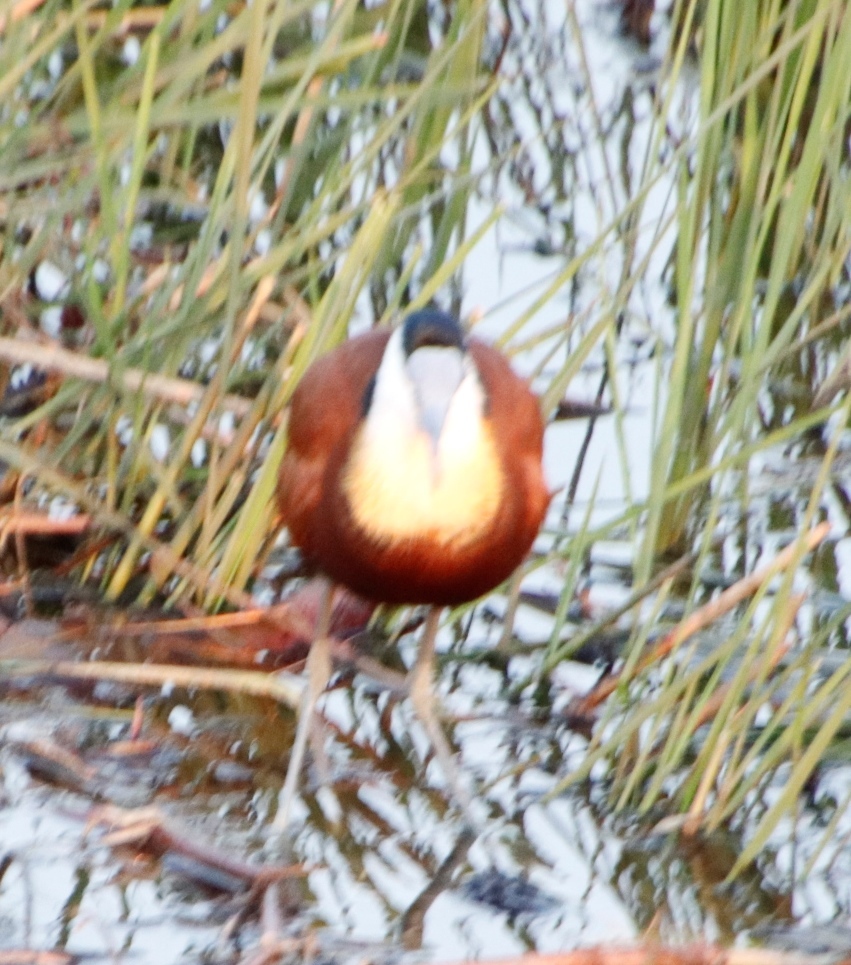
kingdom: Animalia
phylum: Chordata
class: Aves
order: Charadriiformes
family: Jacanidae
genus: Actophilornis
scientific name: Actophilornis africanus
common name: African jacana
